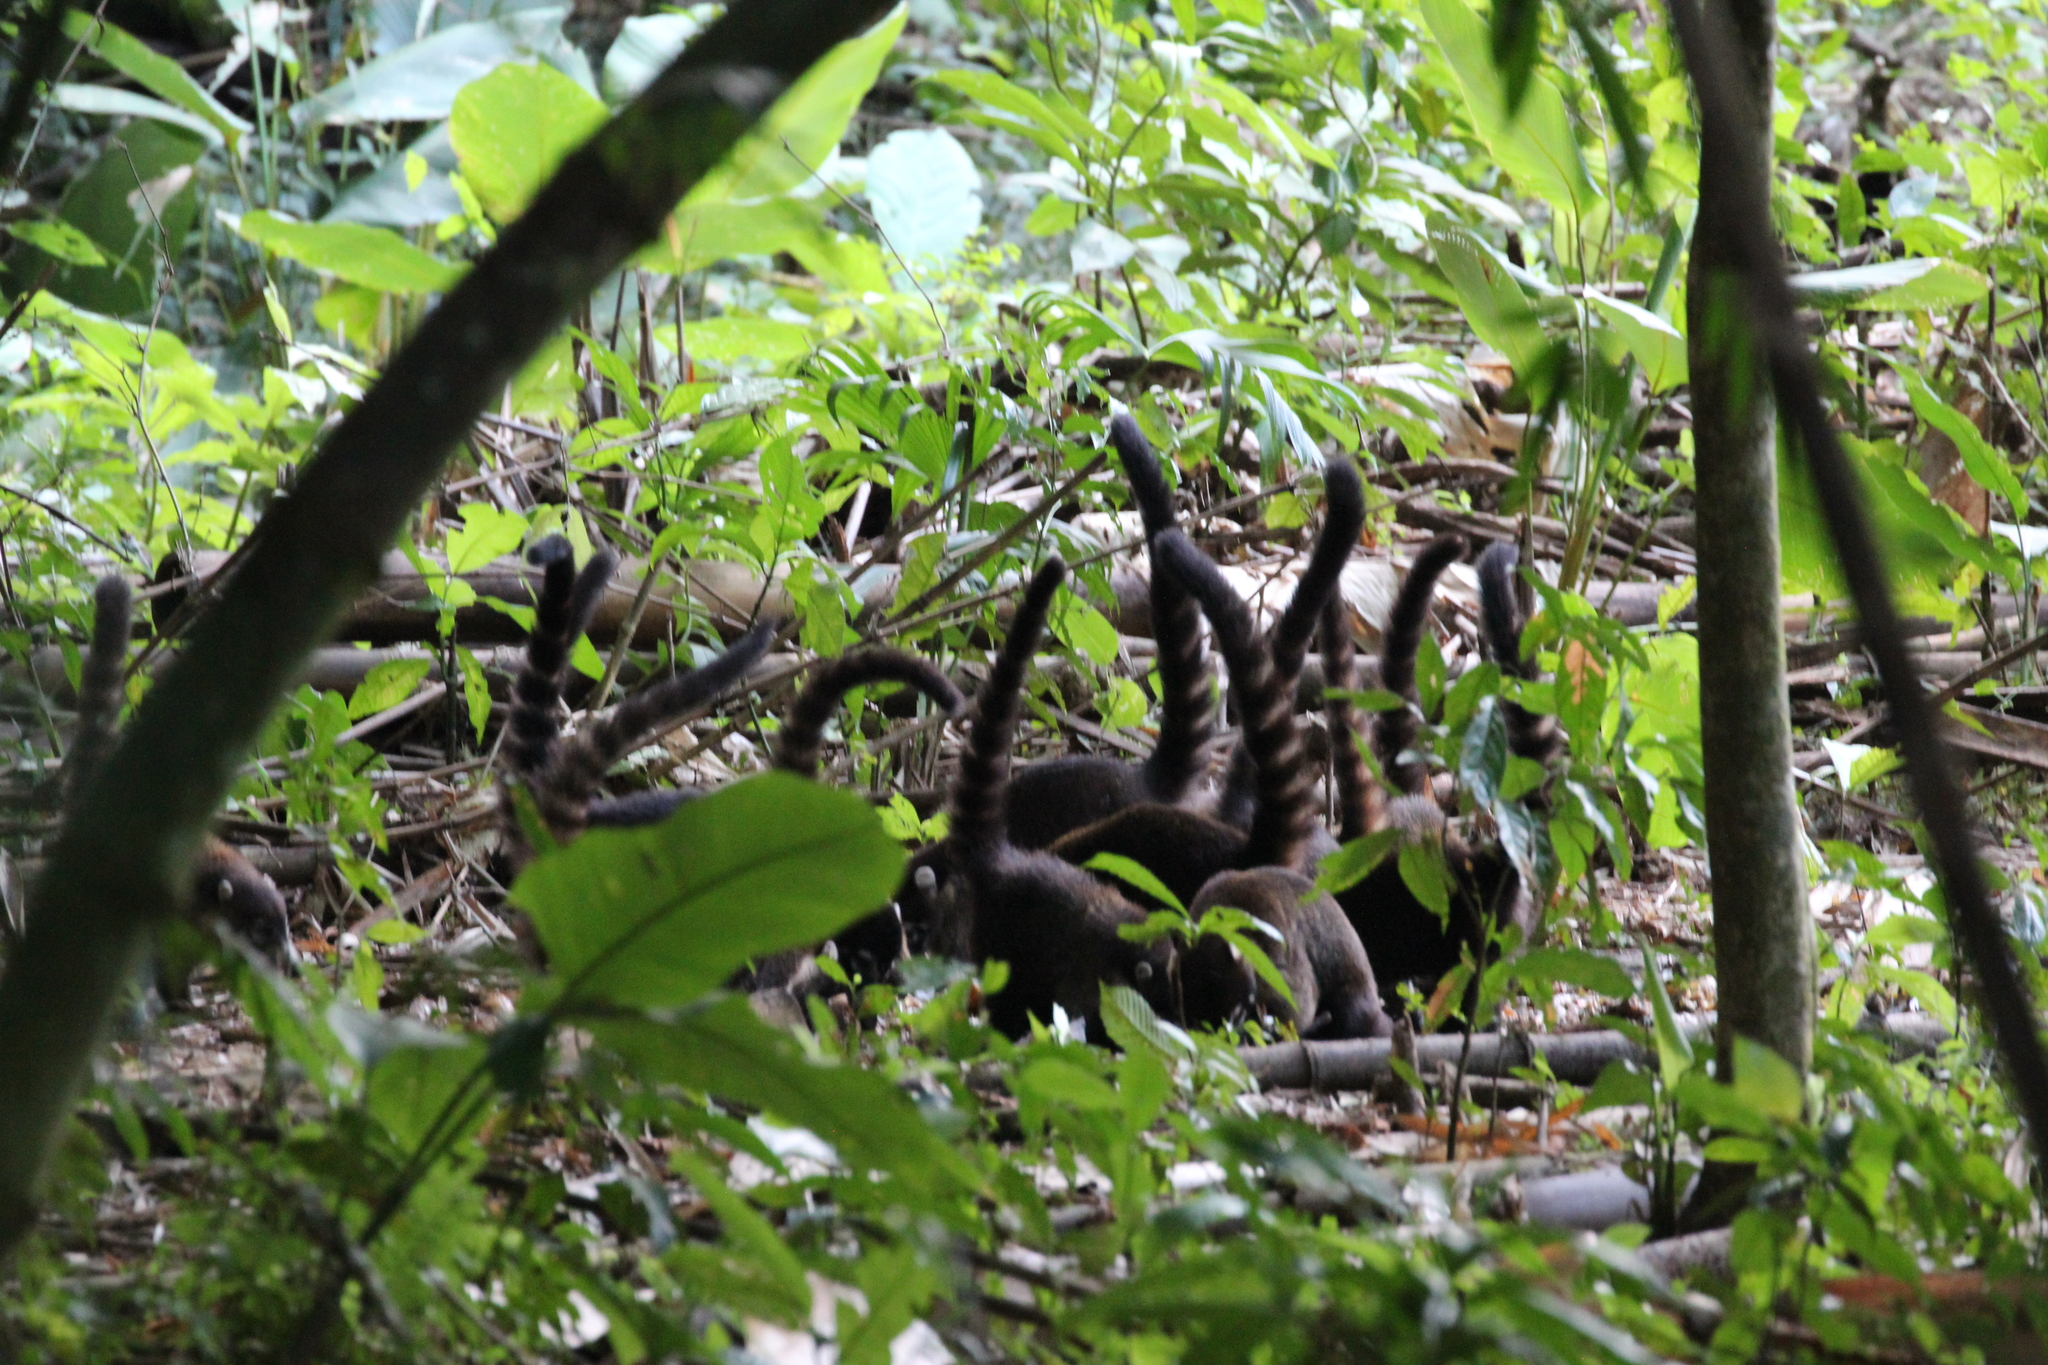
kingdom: Animalia
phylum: Chordata
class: Mammalia
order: Carnivora
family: Procyonidae
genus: Nasua
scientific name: Nasua narica
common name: White-nosed coati
